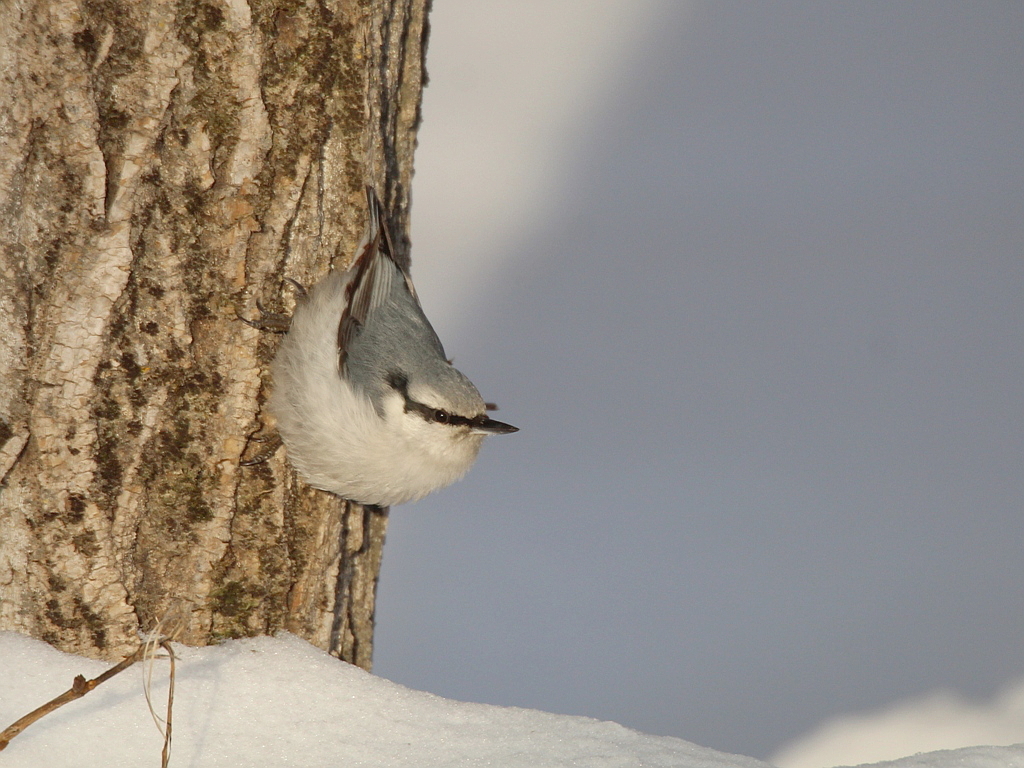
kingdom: Animalia
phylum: Chordata
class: Aves
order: Passeriformes
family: Sittidae
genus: Sitta
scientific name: Sitta europaea
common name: Eurasian nuthatch
